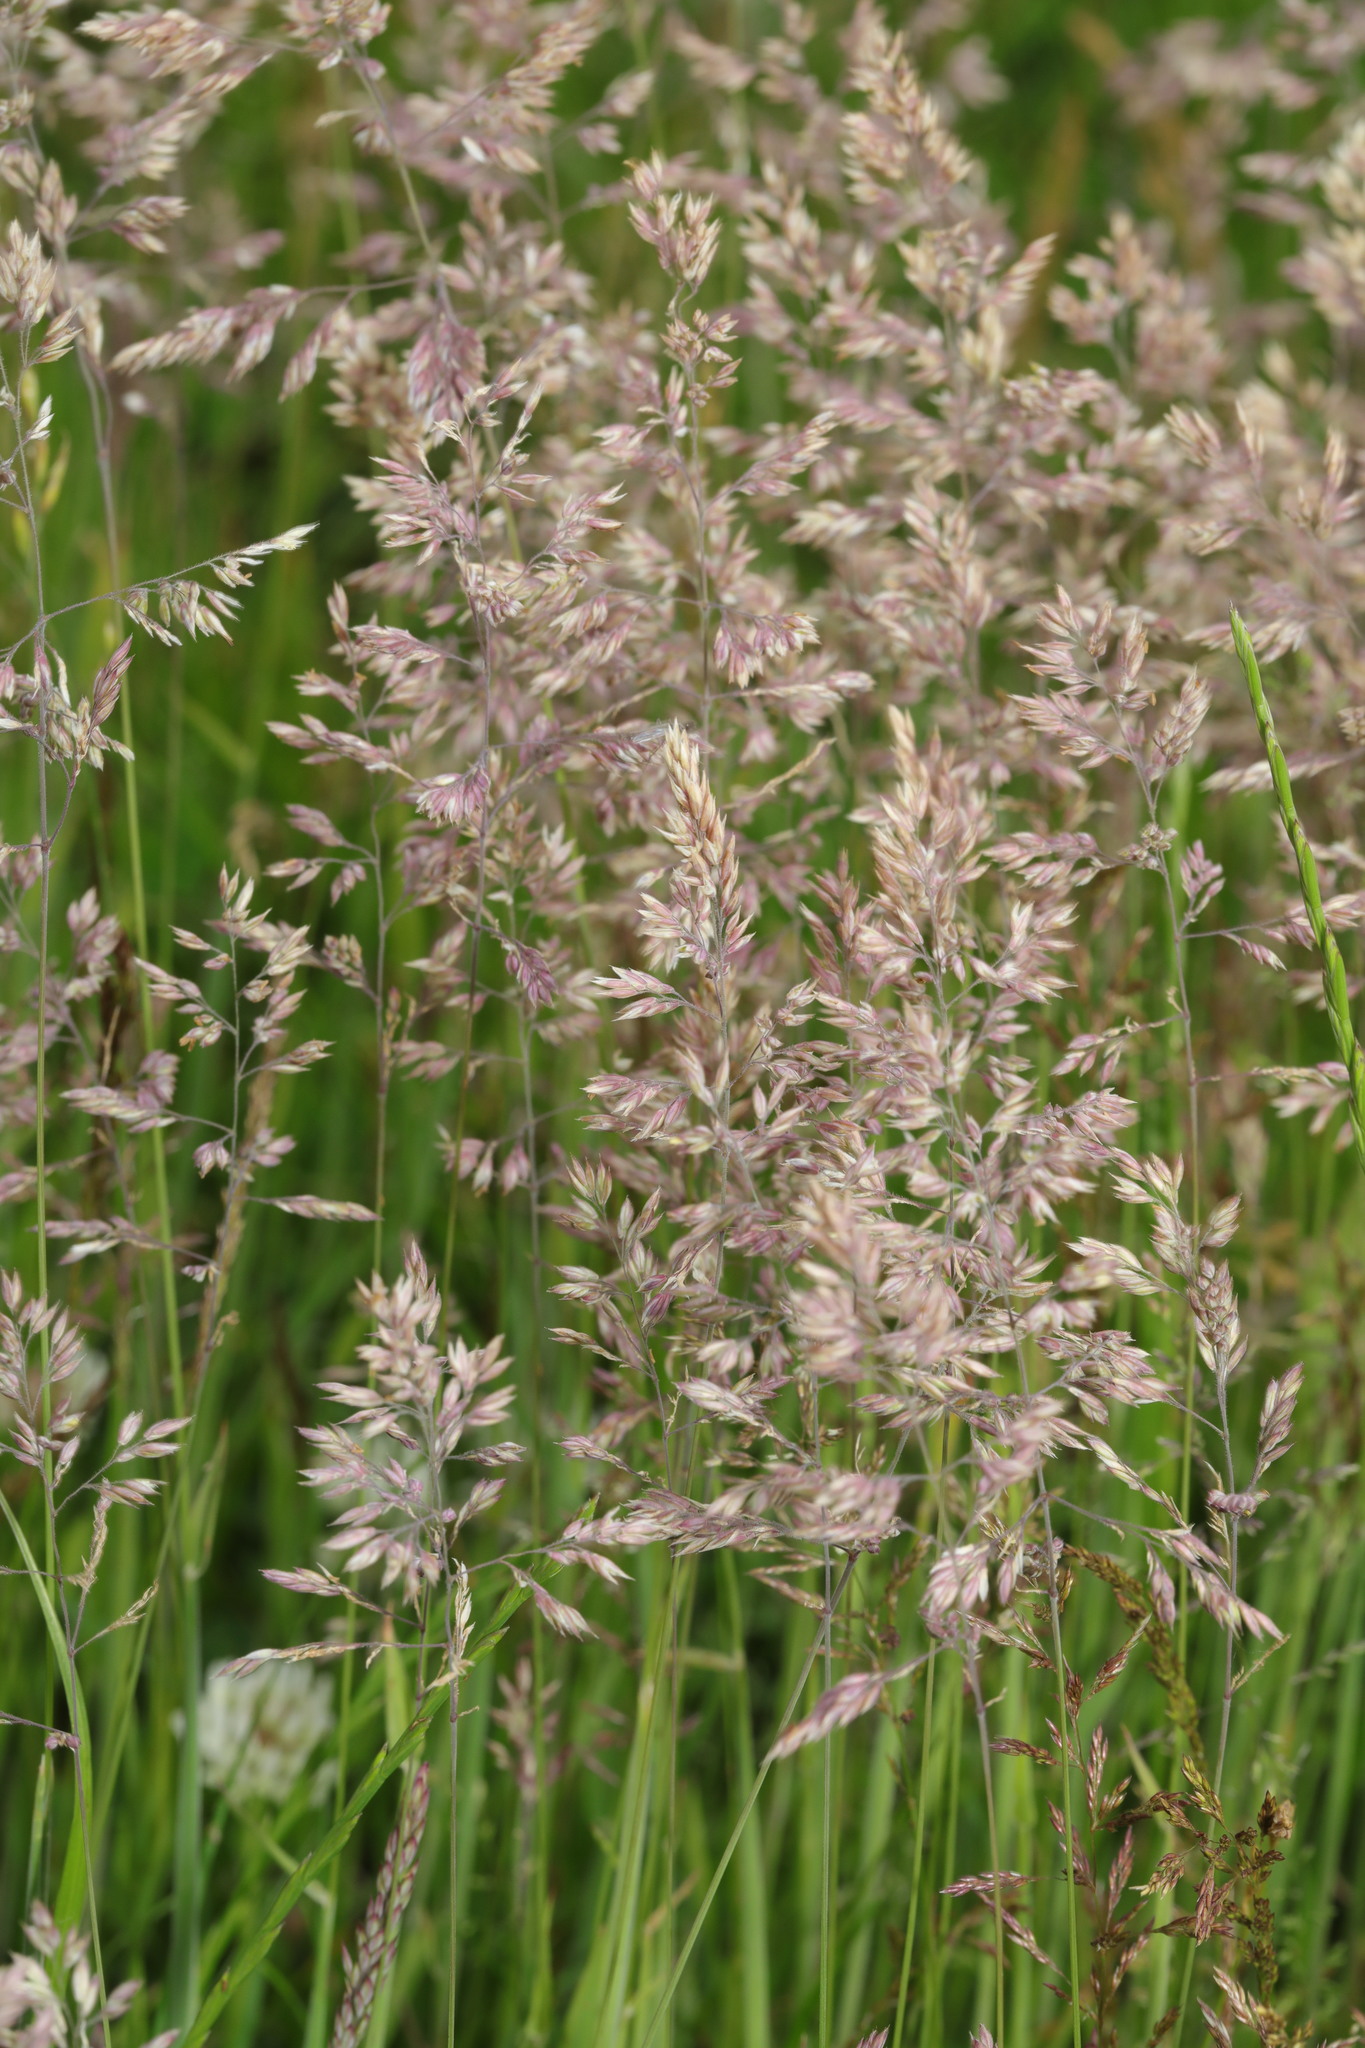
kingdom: Plantae
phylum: Tracheophyta
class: Liliopsida
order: Poales
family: Poaceae
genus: Holcus
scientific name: Holcus lanatus
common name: Yorkshire-fog
